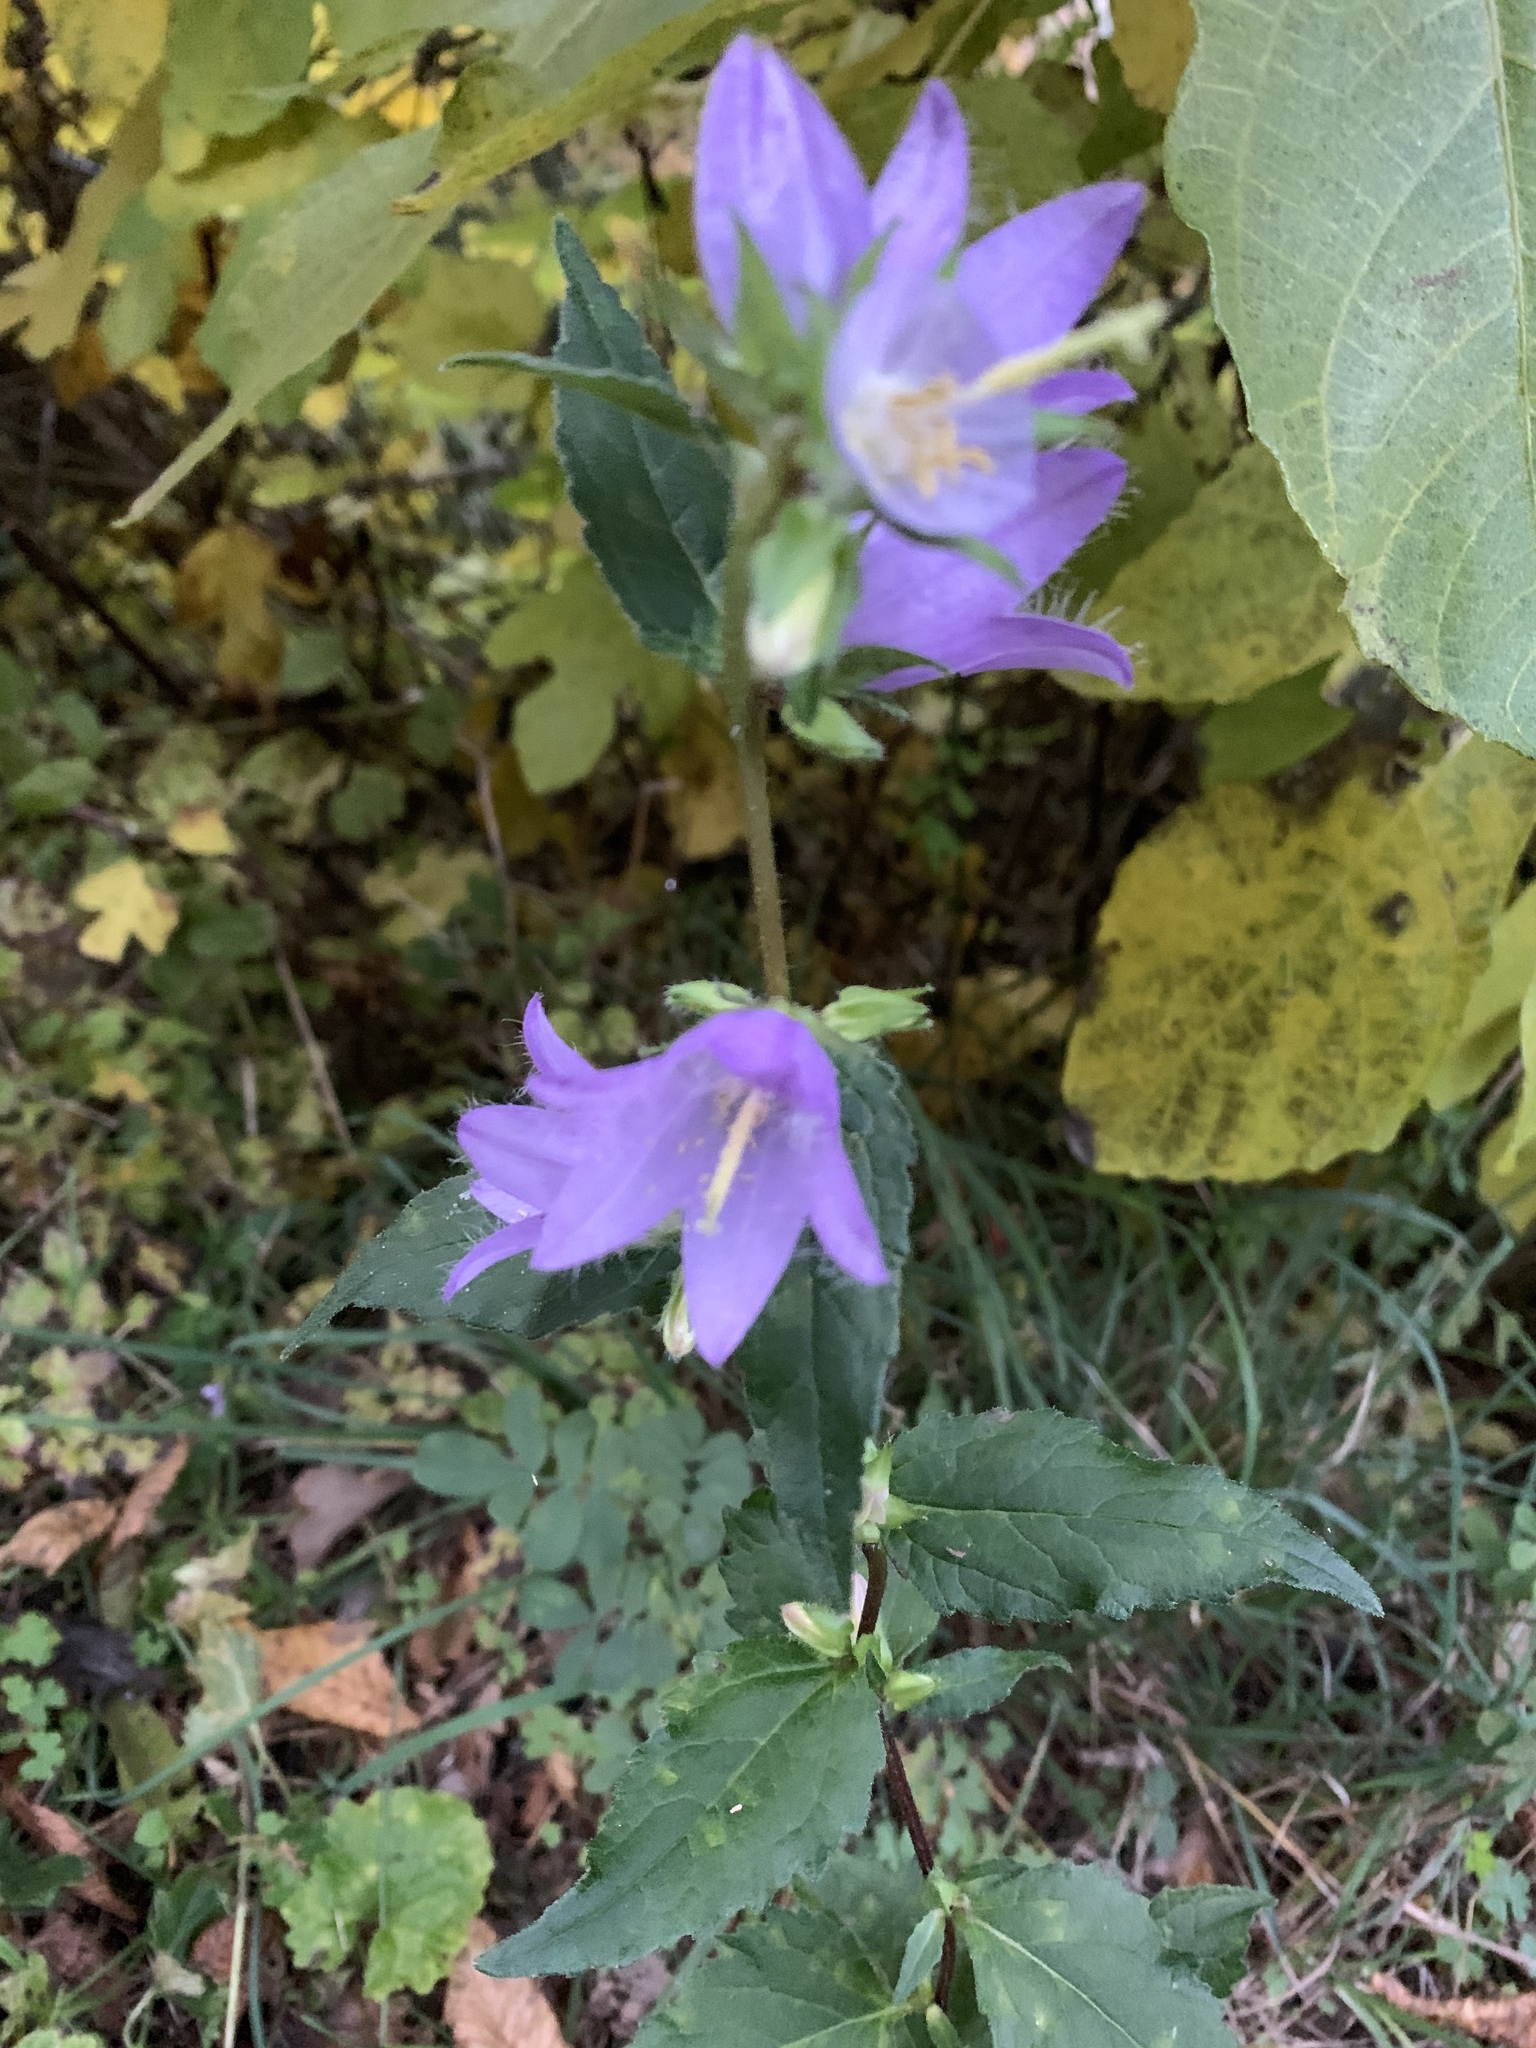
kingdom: Plantae
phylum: Tracheophyta
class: Magnoliopsida
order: Asterales
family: Campanulaceae
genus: Campanula
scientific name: Campanula trachelium
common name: Nettle-leaved bellflower
